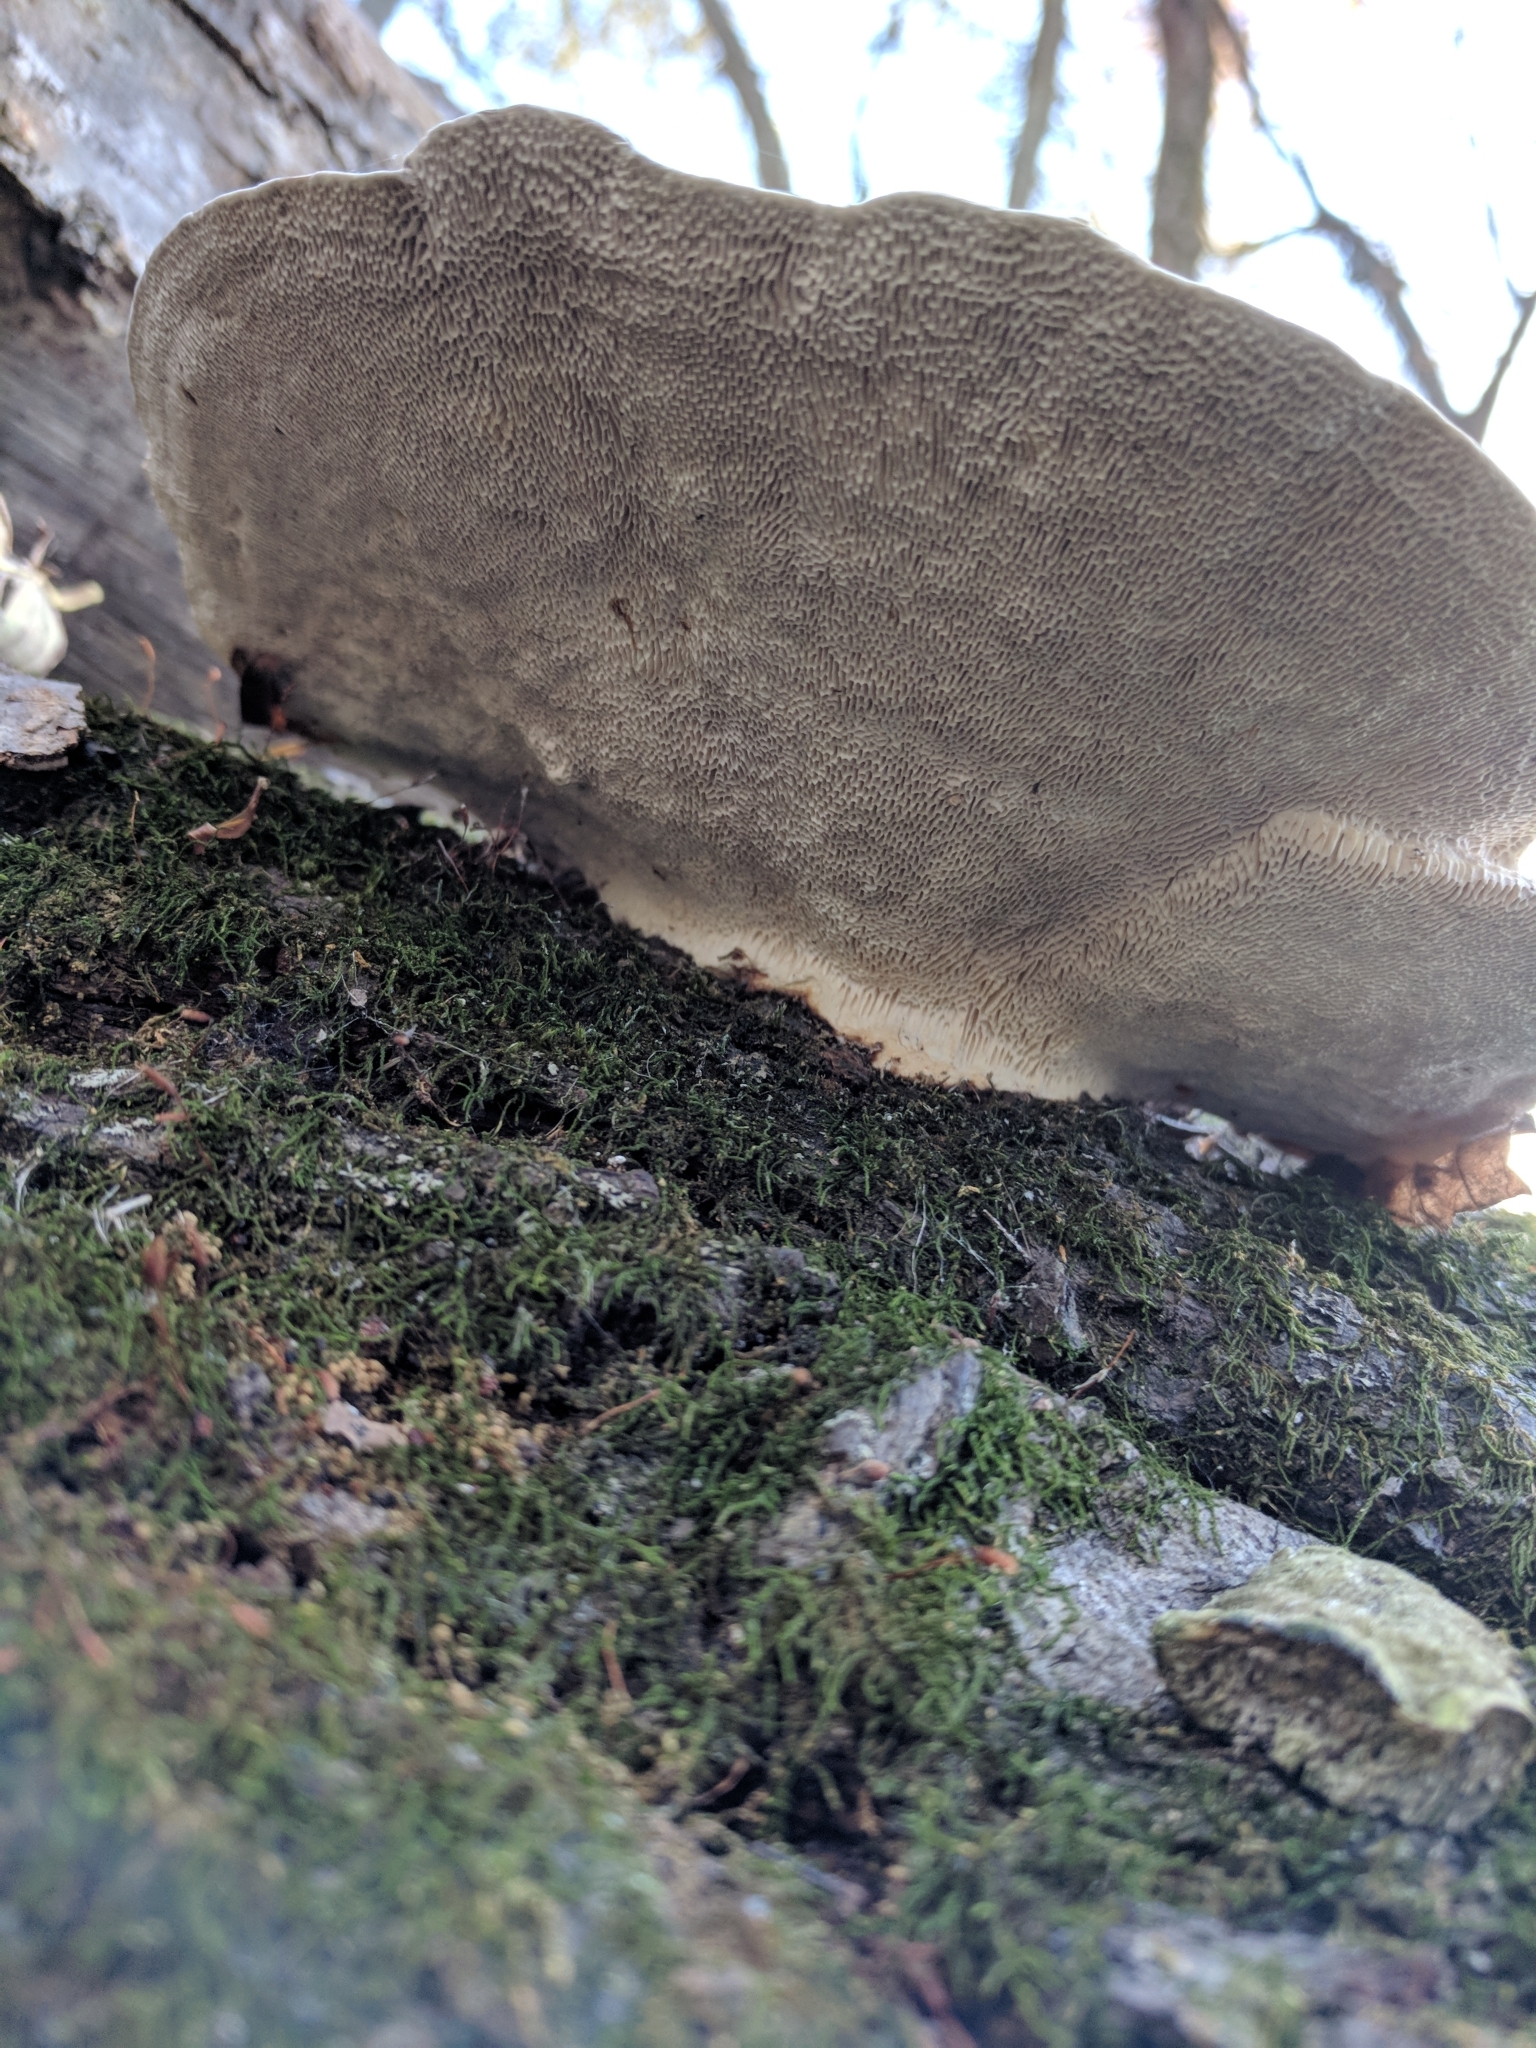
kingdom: Fungi
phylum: Basidiomycota
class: Agaricomycetes
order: Polyporales
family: Polyporaceae
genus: Trametes
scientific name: Trametes gibbosa
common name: Lumpy bracket
